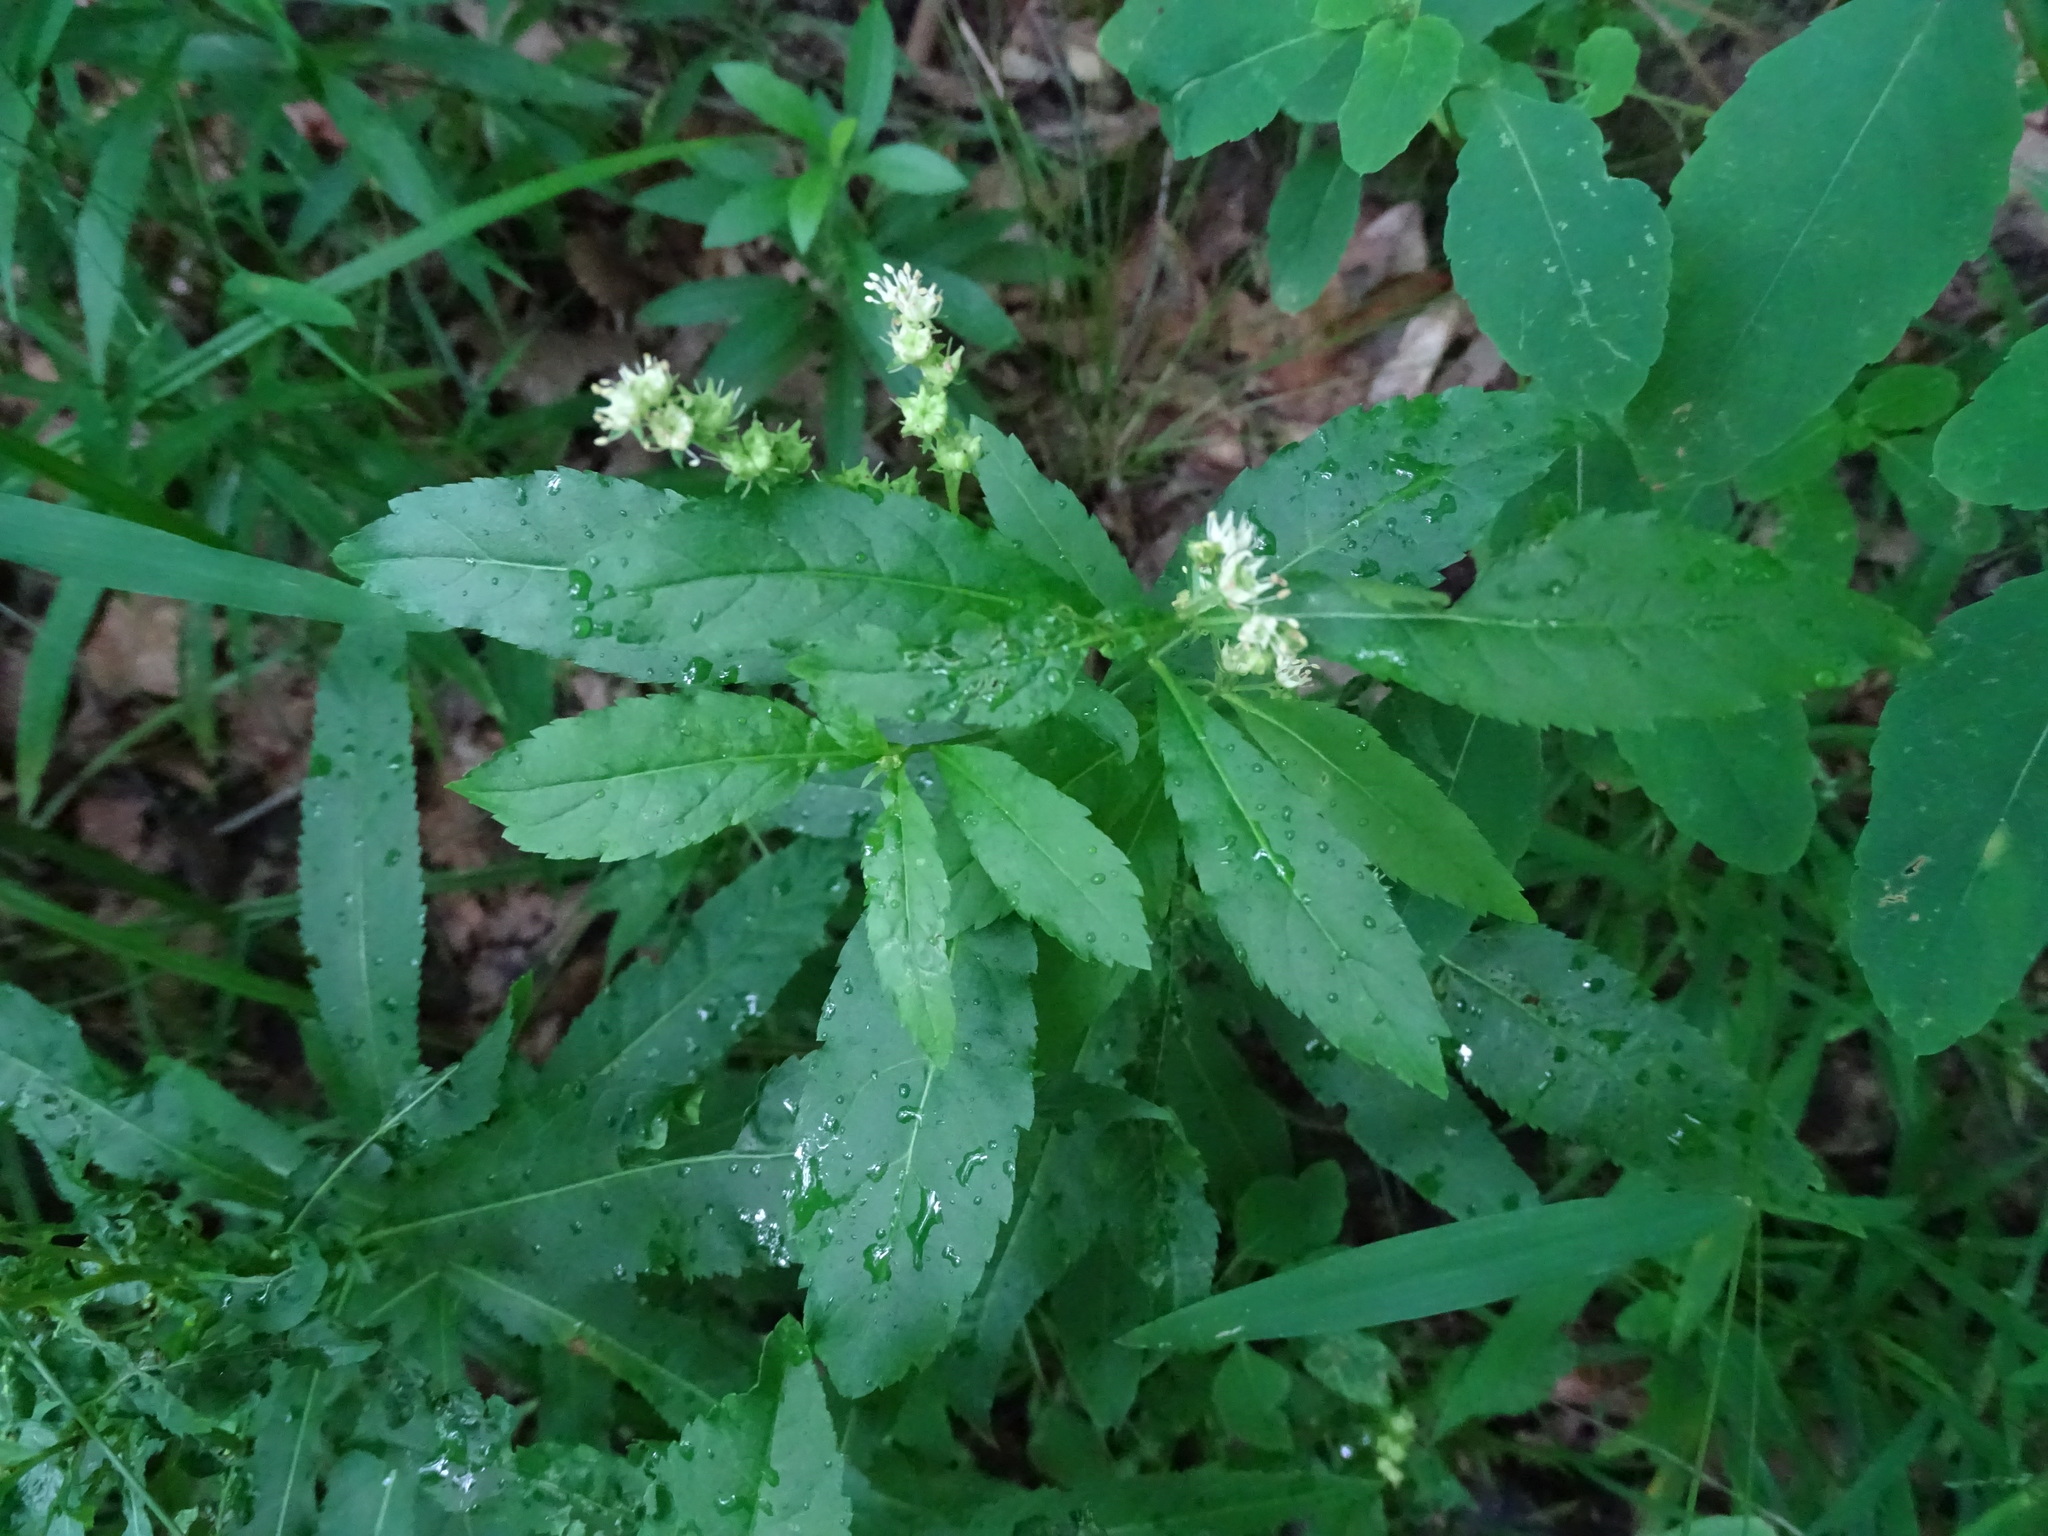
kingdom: Plantae
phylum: Tracheophyta
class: Magnoliopsida
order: Saxifragales
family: Penthoraceae
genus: Penthorum
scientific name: Penthorum sedoides
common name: Ditch stonecrop
